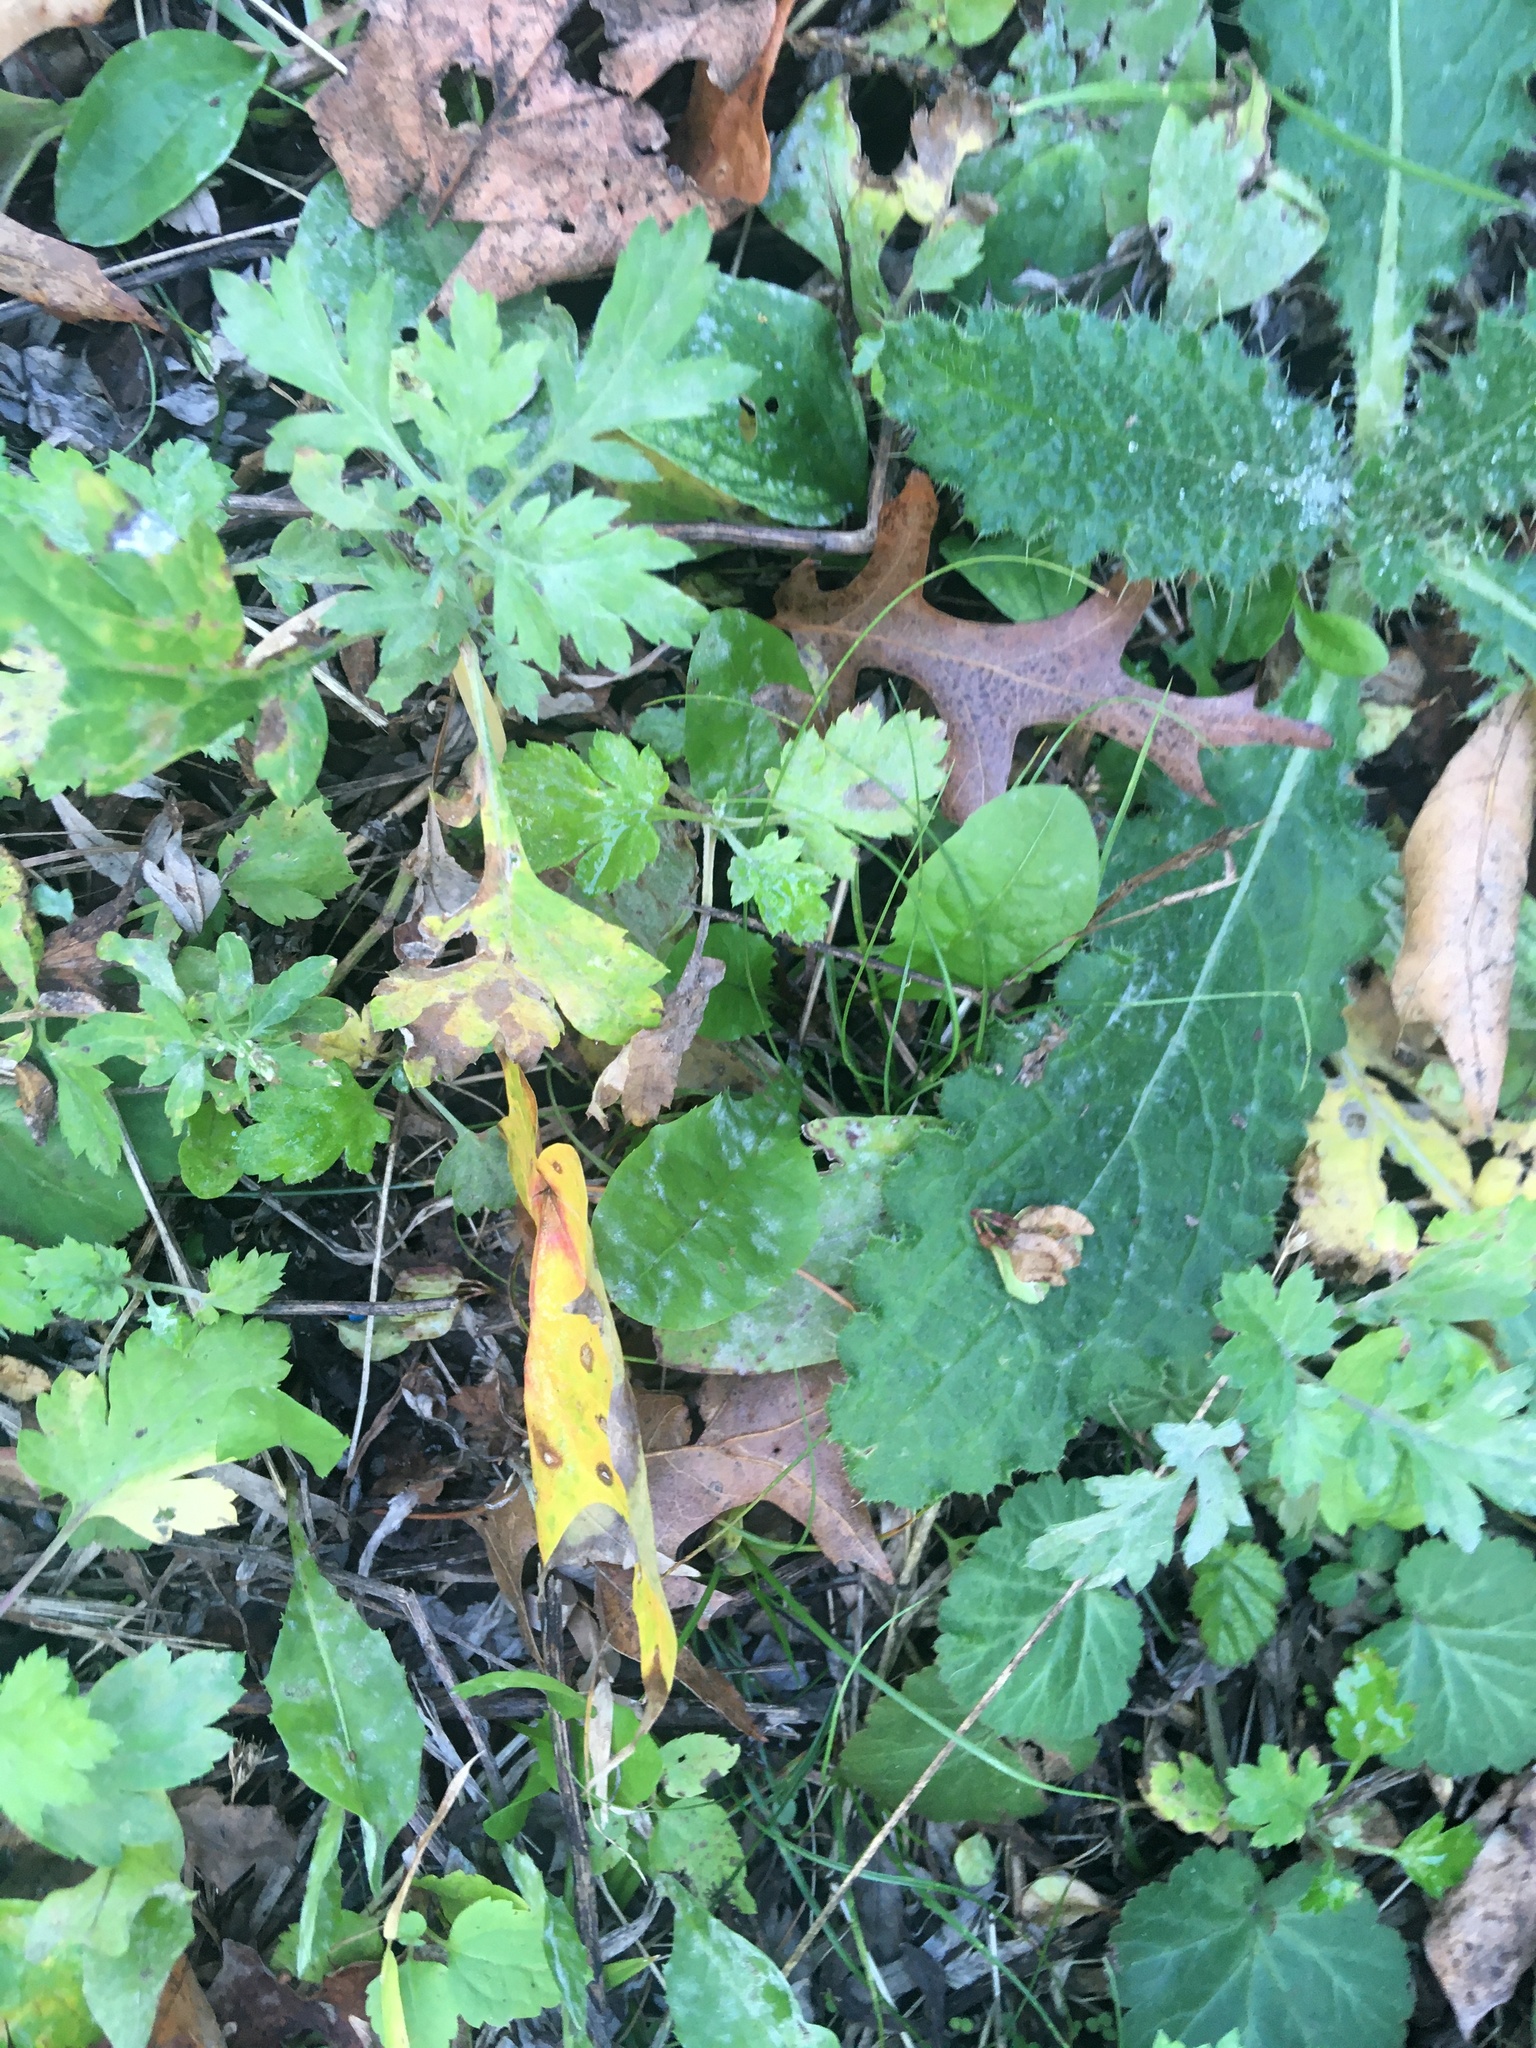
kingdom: Plantae
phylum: Tracheophyta
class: Magnoliopsida
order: Asterales
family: Asteraceae
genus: Artemisia
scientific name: Artemisia vulgaris
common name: Mugwort
